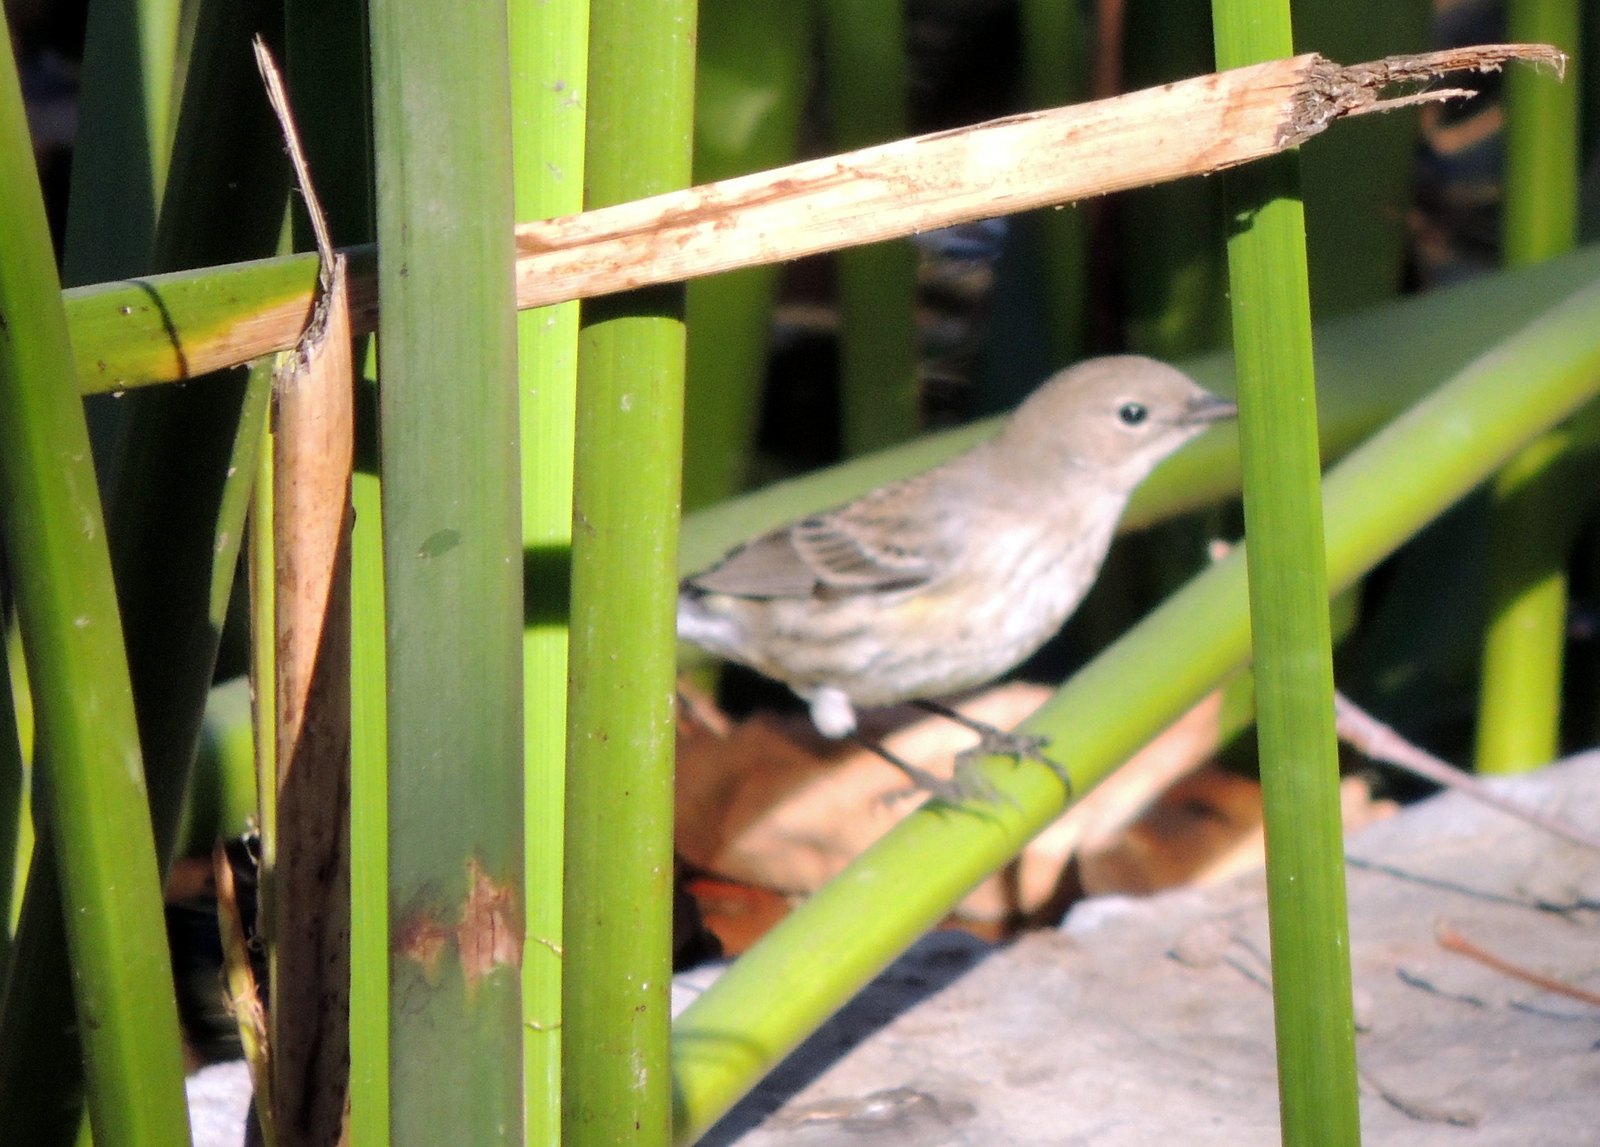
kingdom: Animalia
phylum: Chordata
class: Aves
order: Passeriformes
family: Parulidae
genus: Setophaga
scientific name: Setophaga coronata
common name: Myrtle warbler
